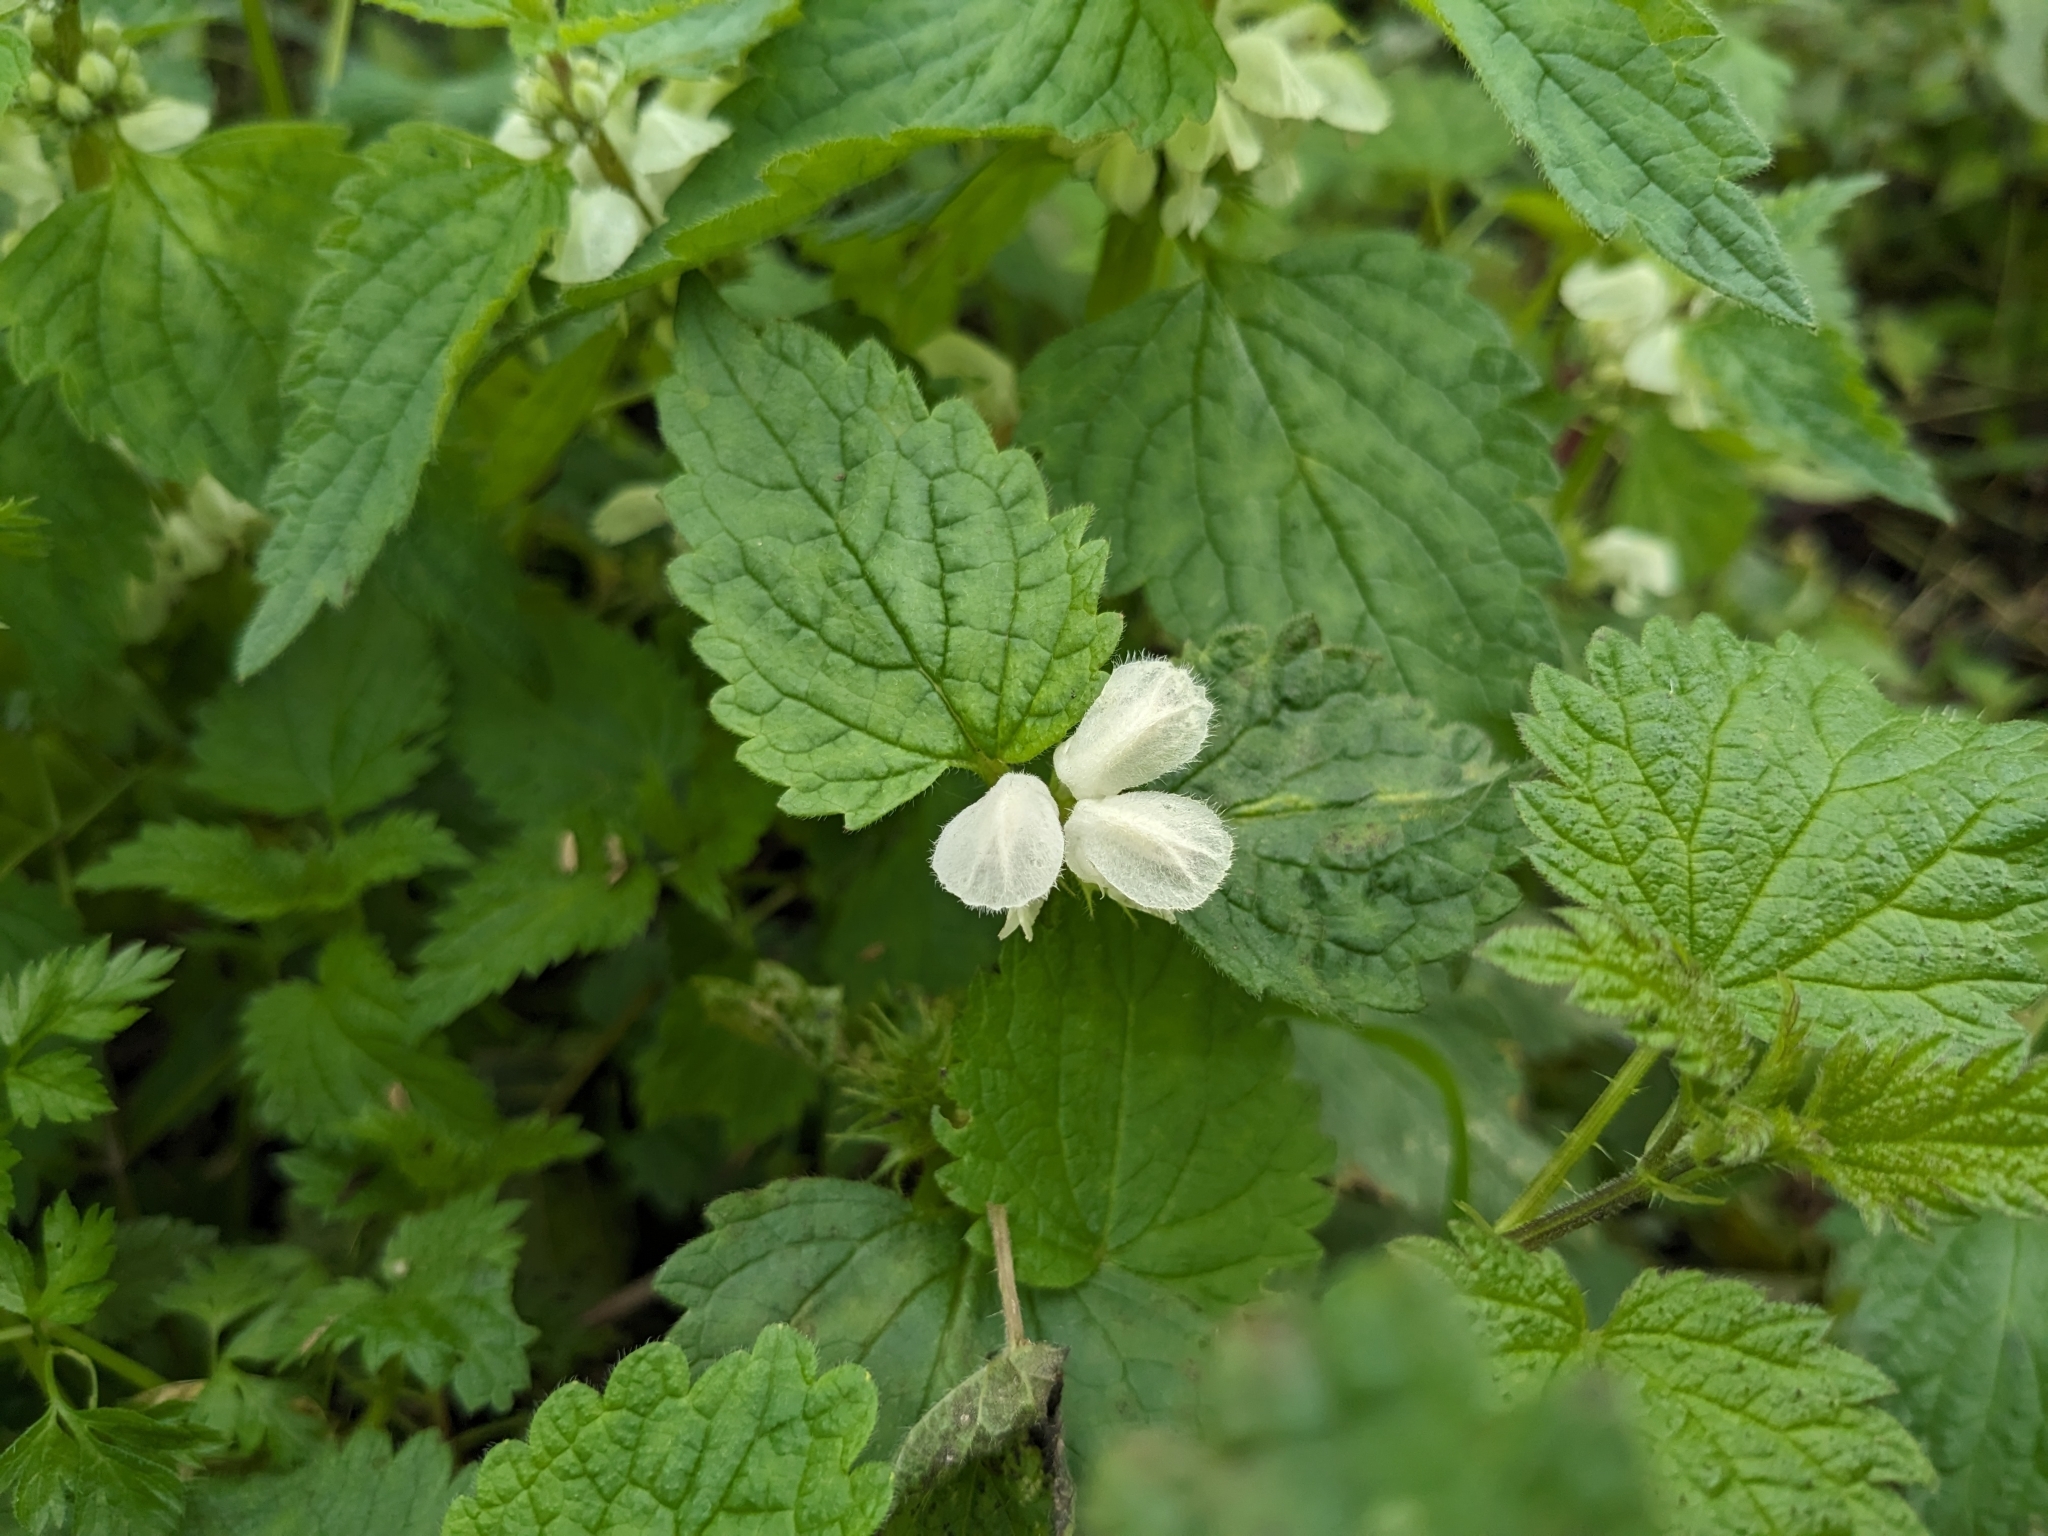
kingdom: Plantae
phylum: Tracheophyta
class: Magnoliopsida
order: Lamiales
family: Lamiaceae
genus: Lamium
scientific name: Lamium album
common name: White dead-nettle
